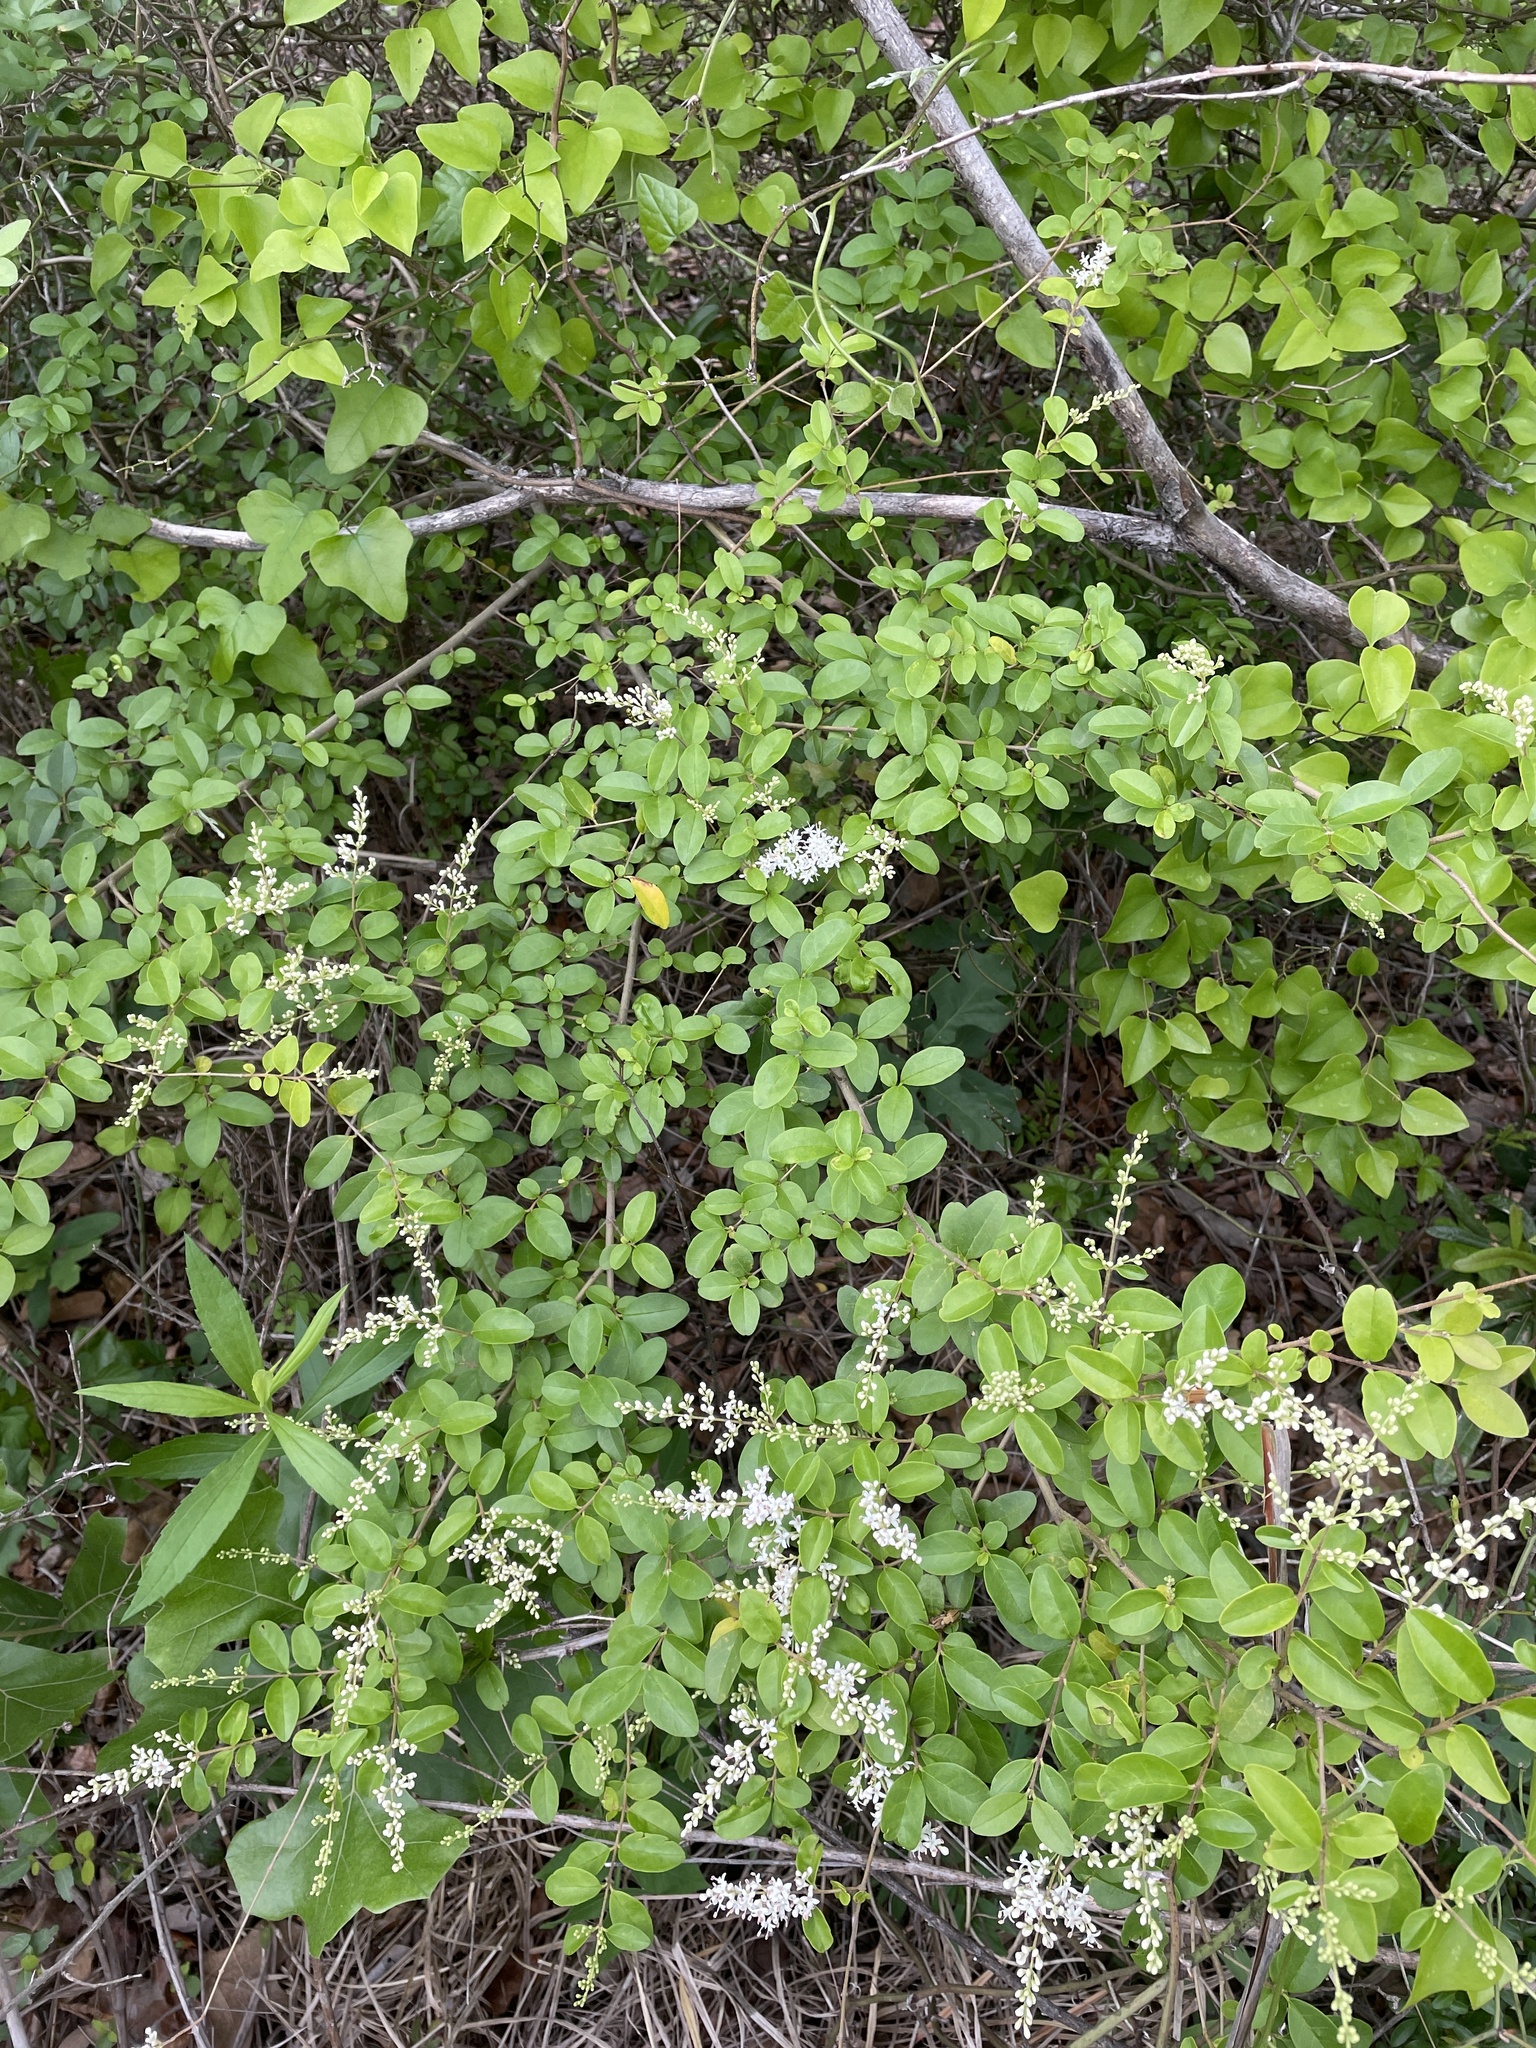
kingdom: Plantae
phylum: Tracheophyta
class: Magnoliopsida
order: Lamiales
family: Oleaceae
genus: Ligustrum
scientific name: Ligustrum sinense
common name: Chinese privet
